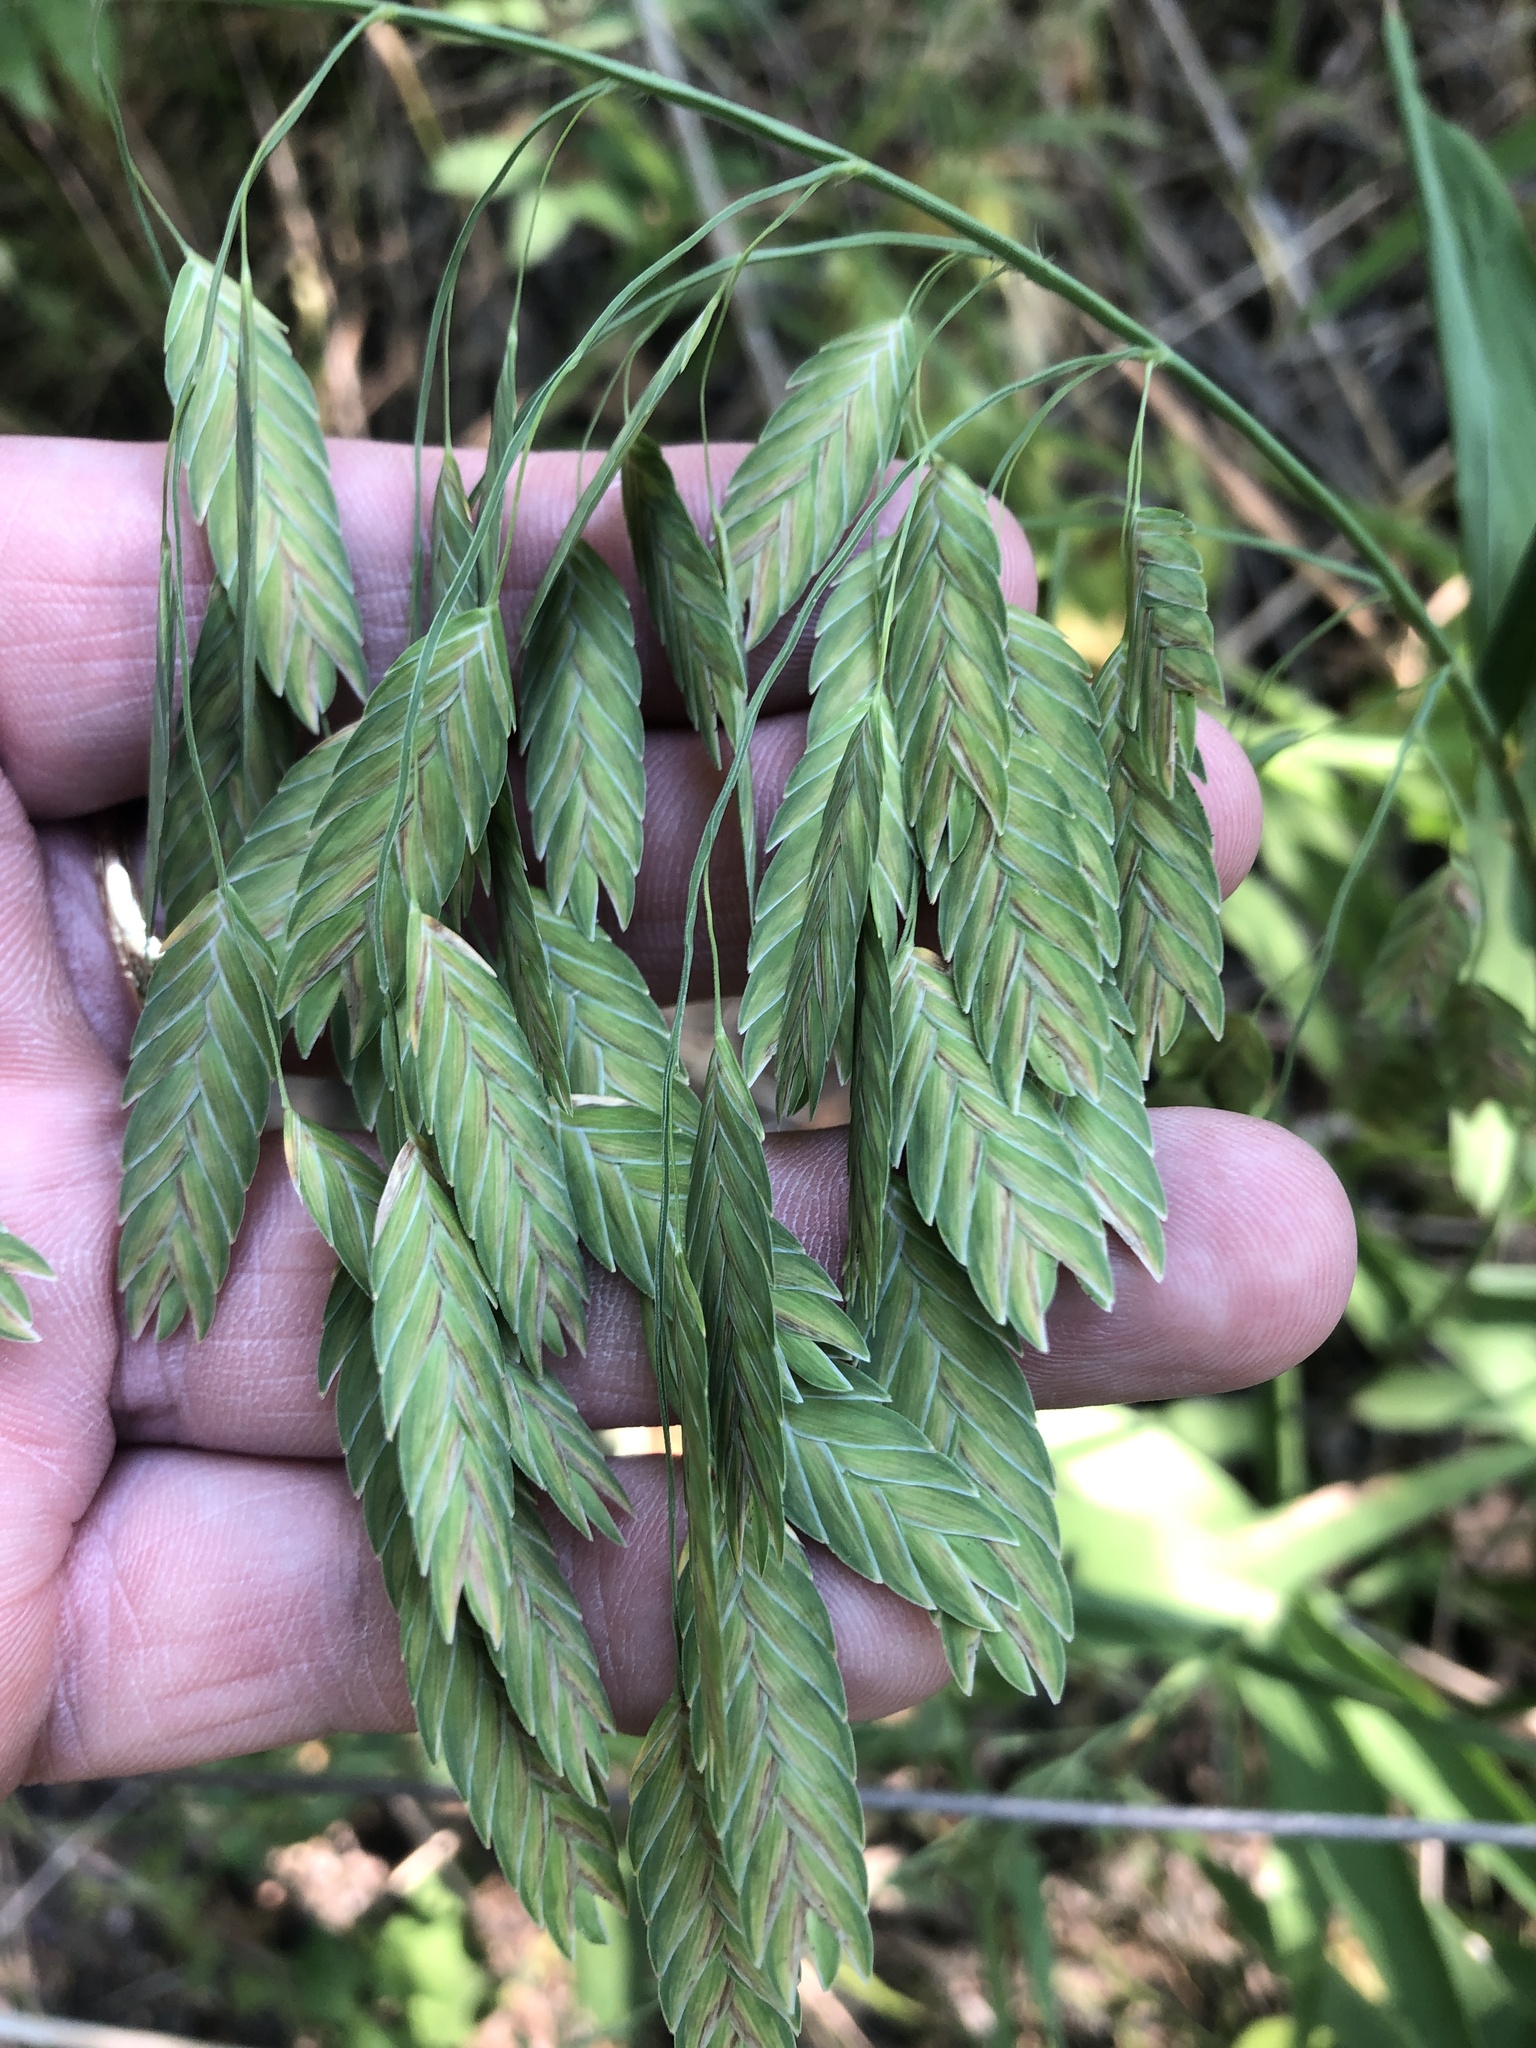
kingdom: Plantae
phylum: Tracheophyta
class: Liliopsida
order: Poales
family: Poaceae
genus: Chasmanthium
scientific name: Chasmanthium latifolium
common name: Broad-leaved chasmanthium
